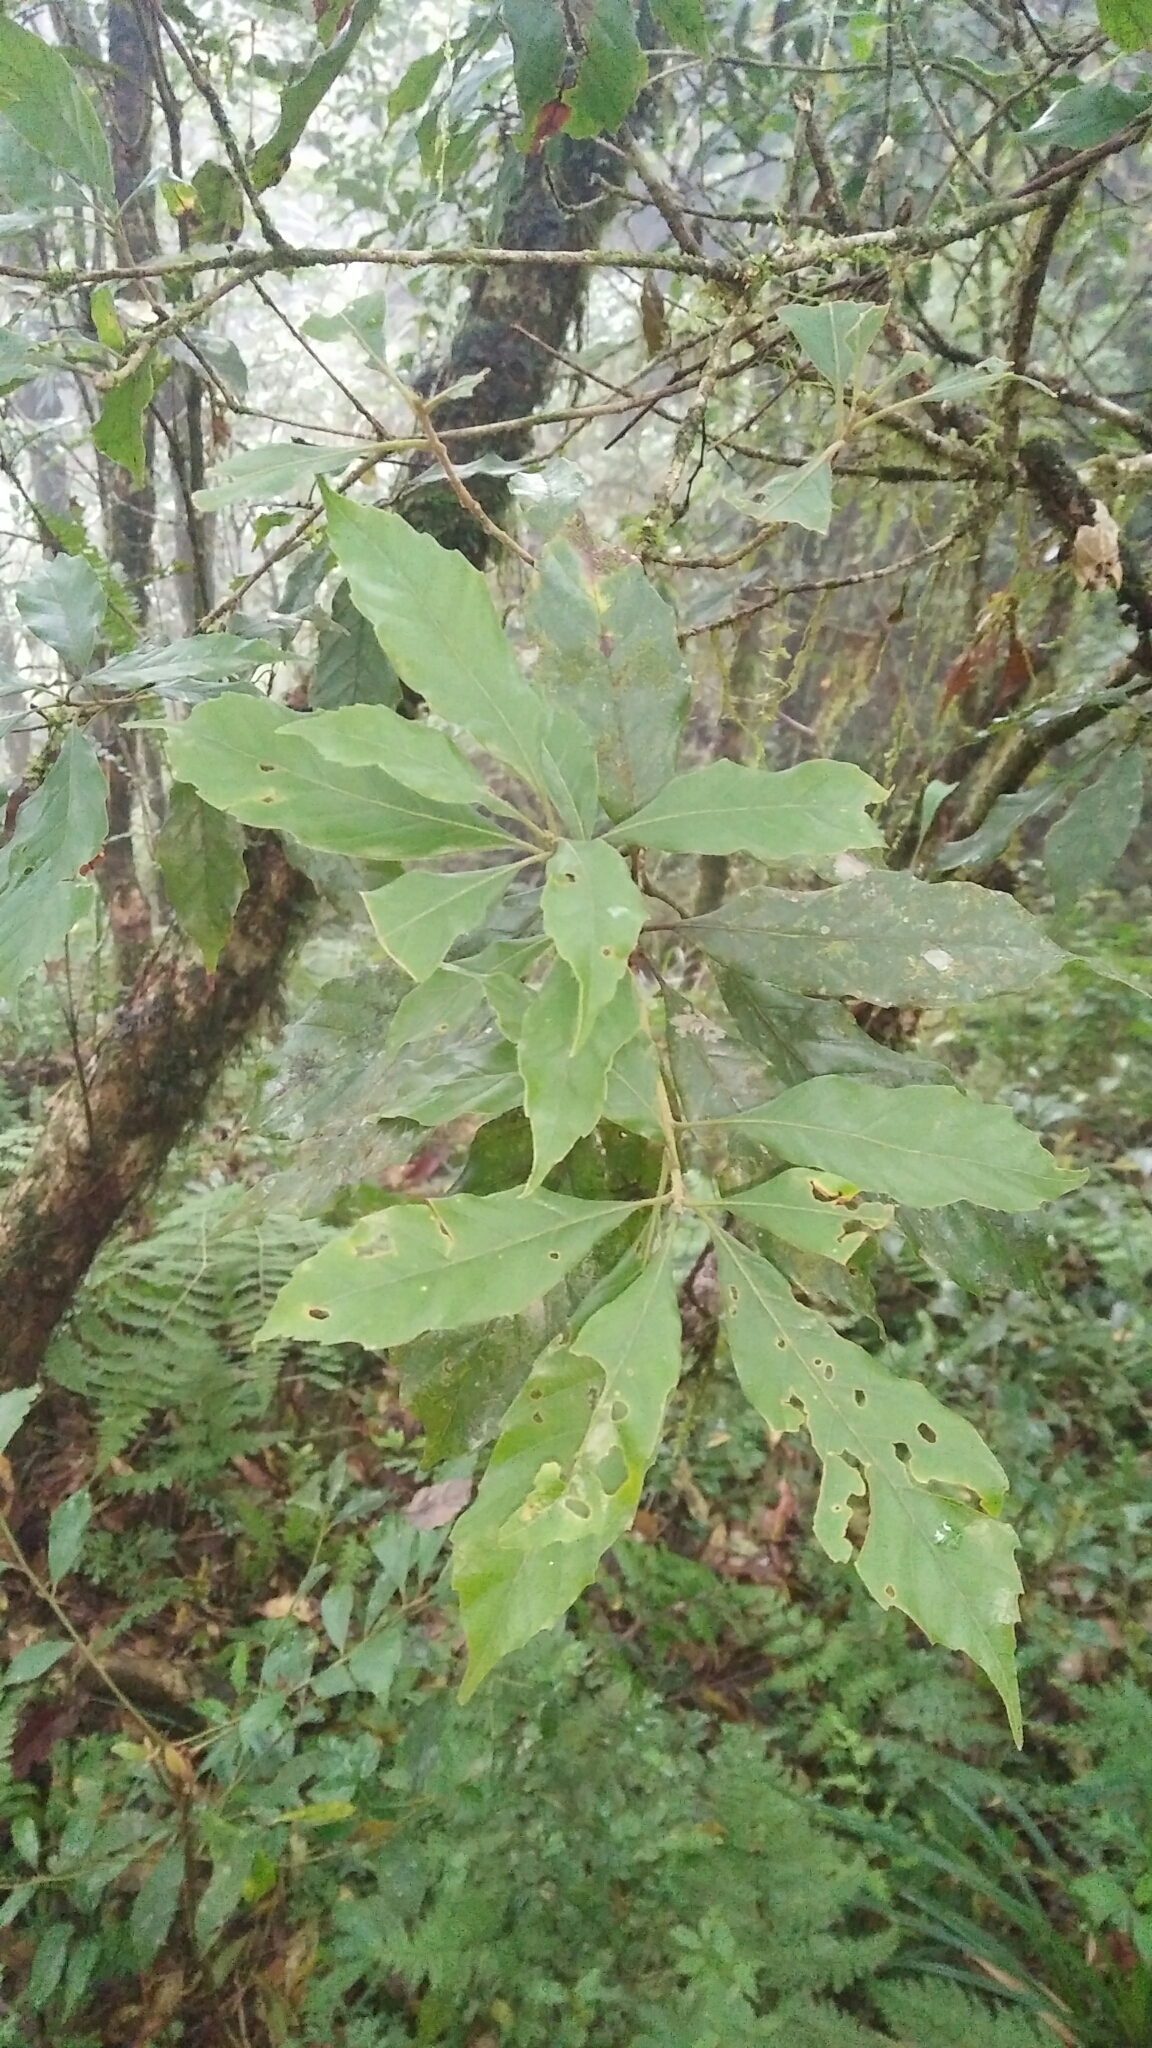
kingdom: Plantae
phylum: Tracheophyta
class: Magnoliopsida
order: Fagales
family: Fagaceae
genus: Lithocarpus
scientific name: Lithocarpus corneus
